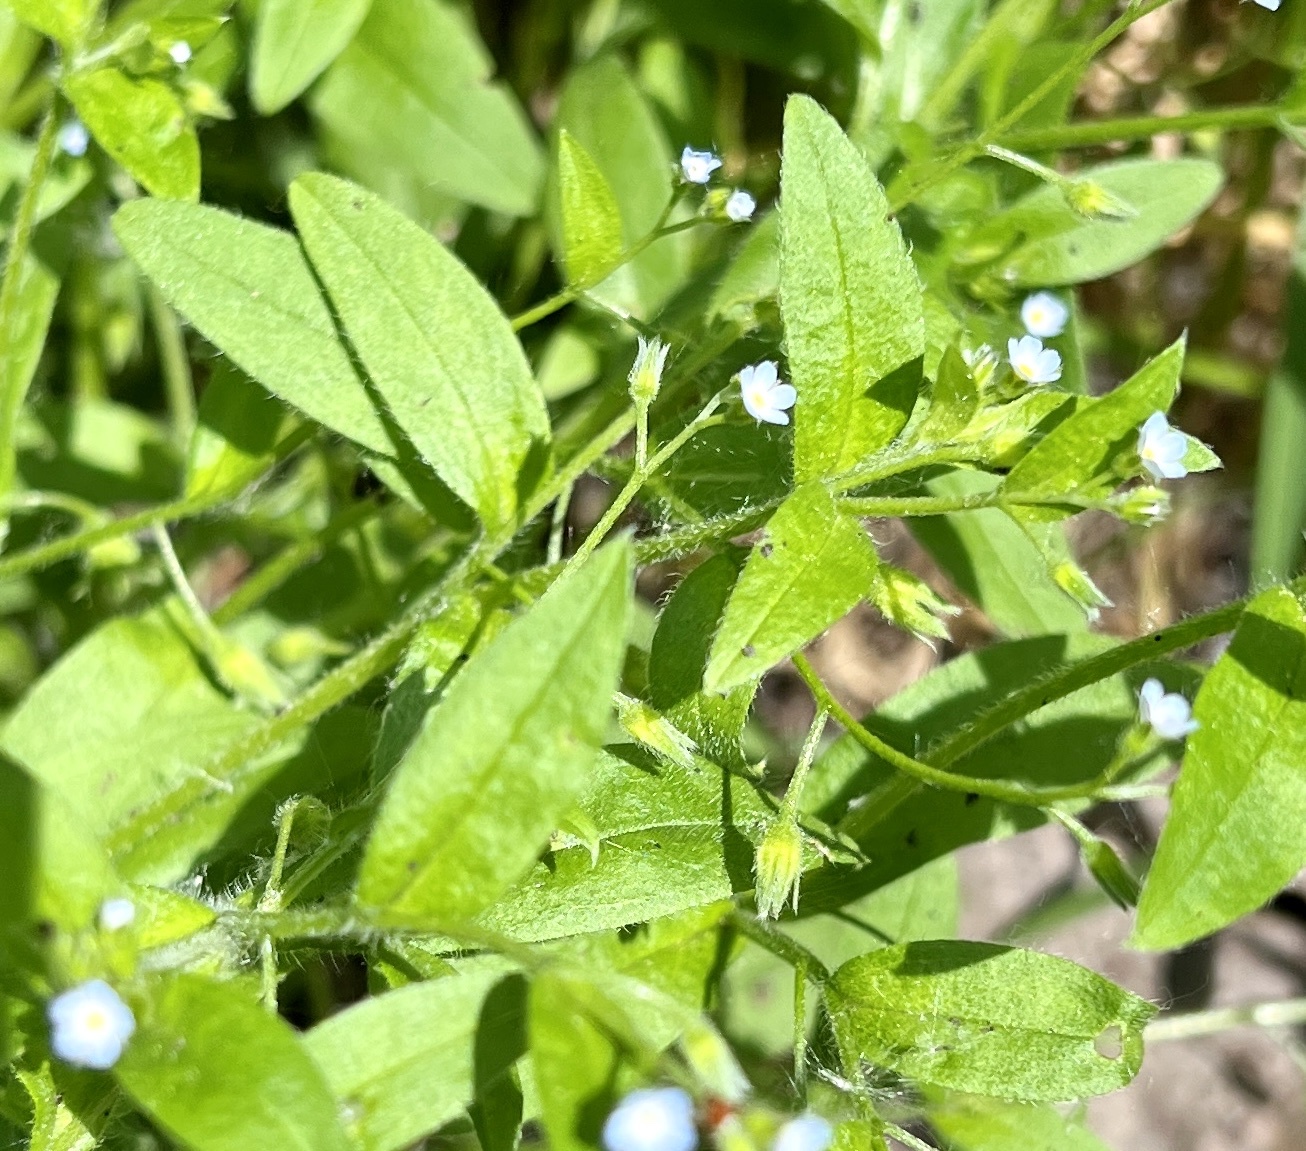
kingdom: Plantae
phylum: Tracheophyta
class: Magnoliopsida
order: Boraginales
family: Boraginaceae
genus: Myosotis
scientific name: Myosotis sparsiflora
